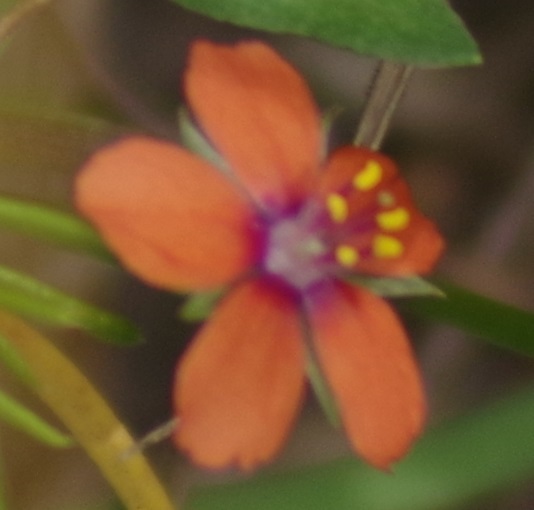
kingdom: Plantae
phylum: Tracheophyta
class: Magnoliopsida
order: Ericales
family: Primulaceae
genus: Lysimachia
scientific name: Lysimachia arvensis
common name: Scarlet pimpernel
